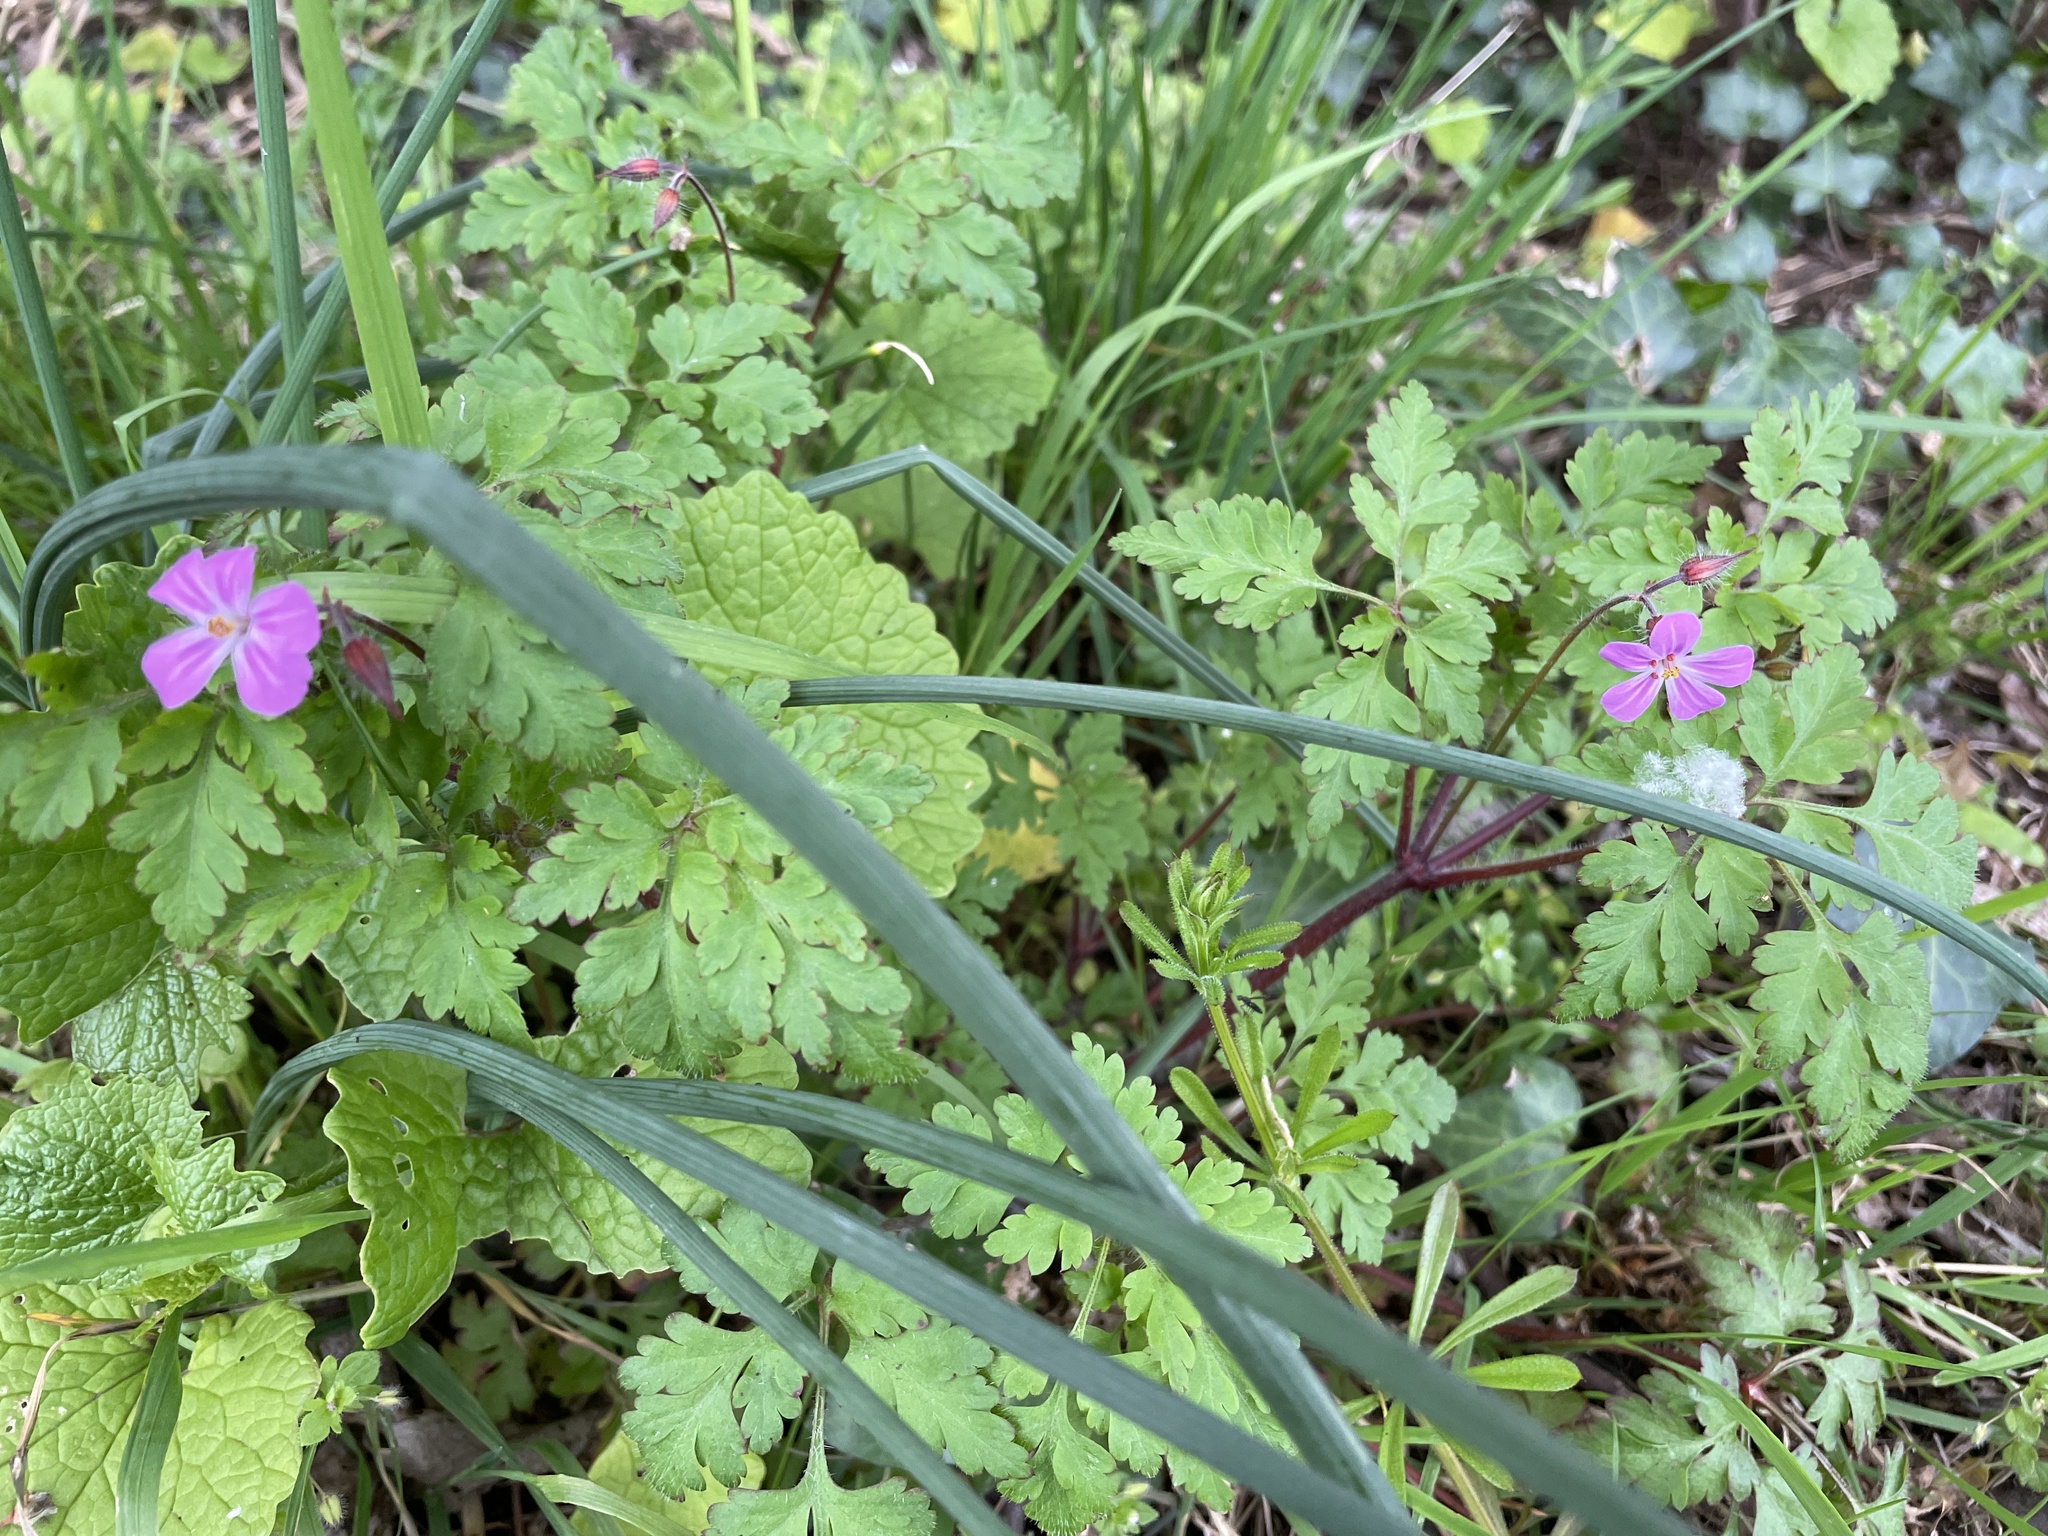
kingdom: Plantae
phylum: Tracheophyta
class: Magnoliopsida
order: Geraniales
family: Geraniaceae
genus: Geranium
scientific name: Geranium robertianum
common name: Herb-robert
